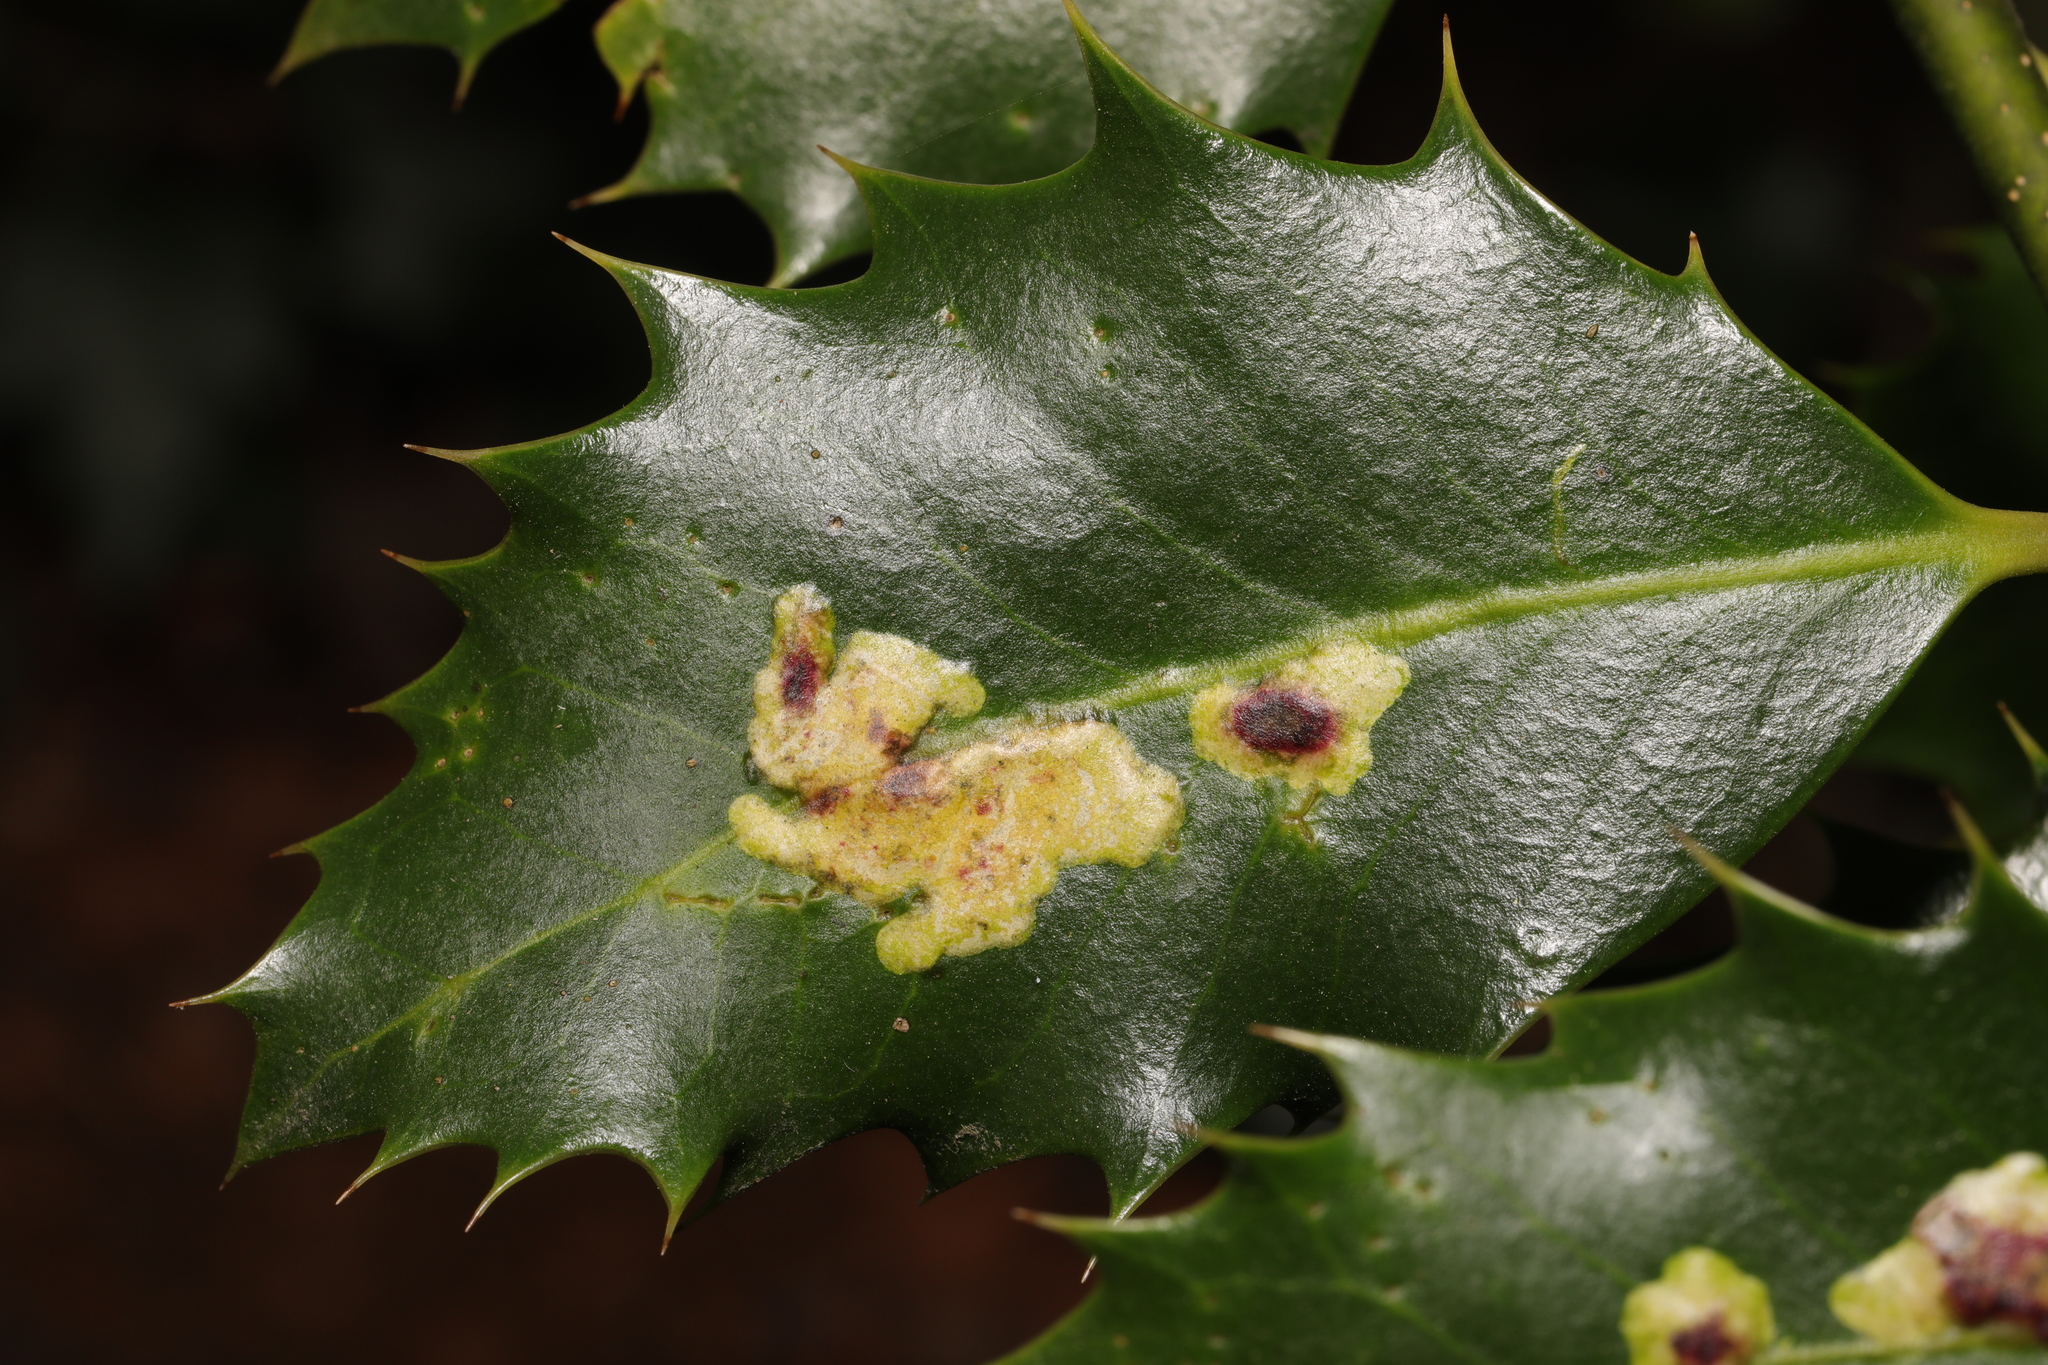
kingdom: Animalia
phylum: Arthropoda
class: Insecta
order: Diptera
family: Agromyzidae
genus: Phytomyza
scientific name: Phytomyza ilicis
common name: Holly leafminer
